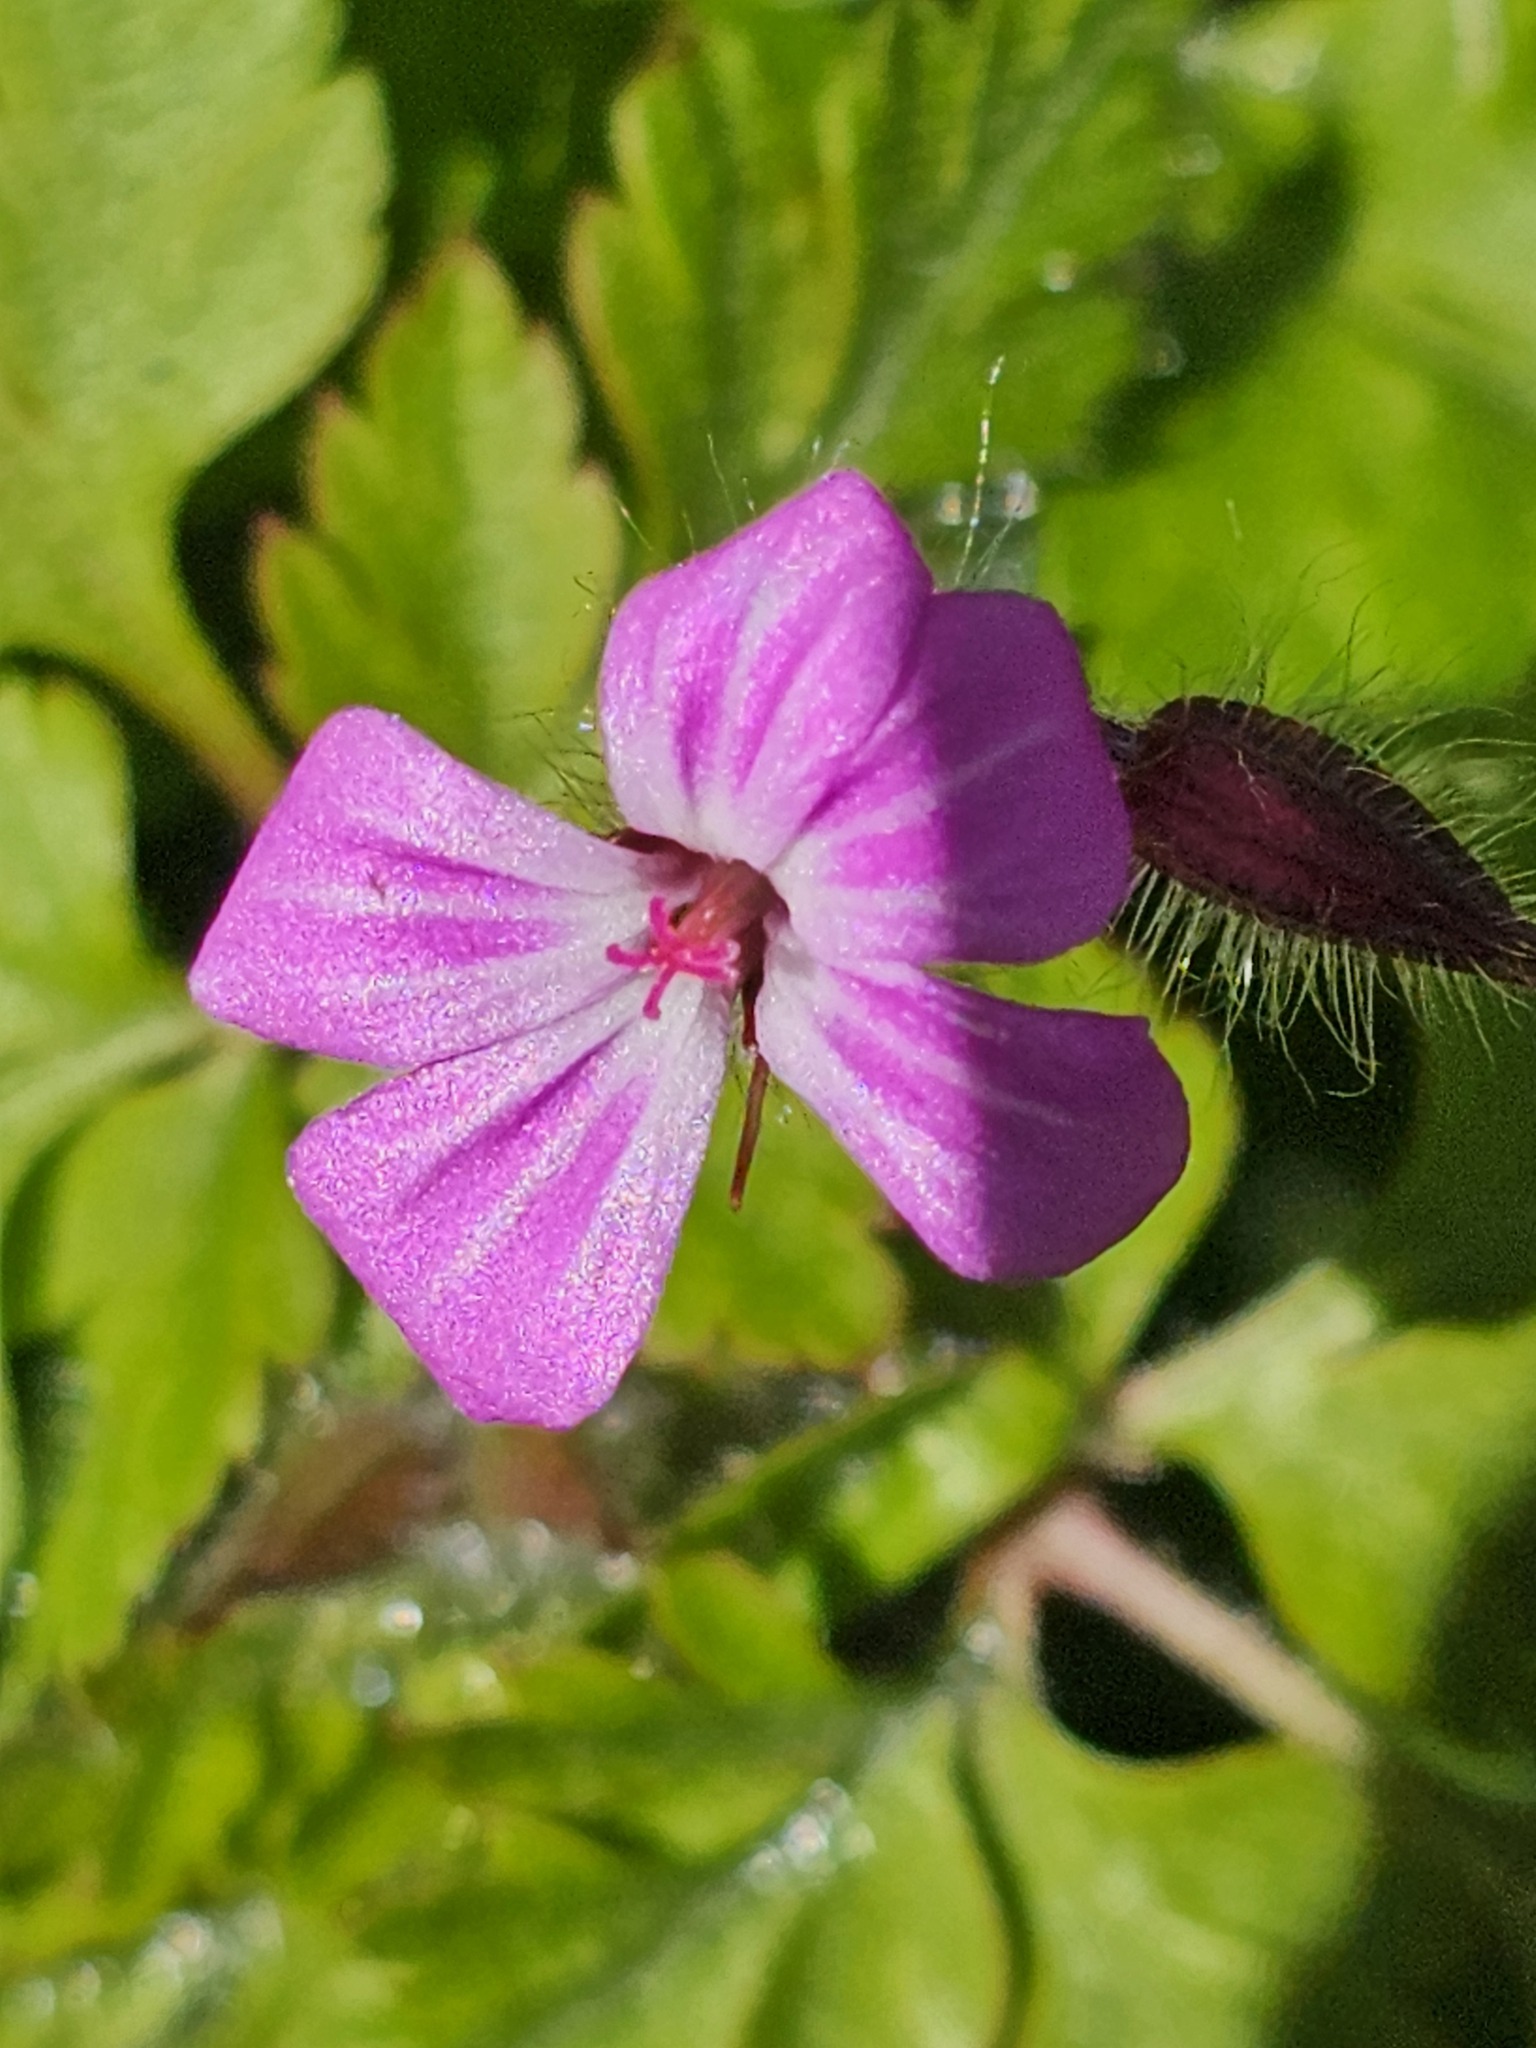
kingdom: Plantae
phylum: Tracheophyta
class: Magnoliopsida
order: Geraniales
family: Geraniaceae
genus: Geranium
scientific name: Geranium robertianum
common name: Herb-robert
